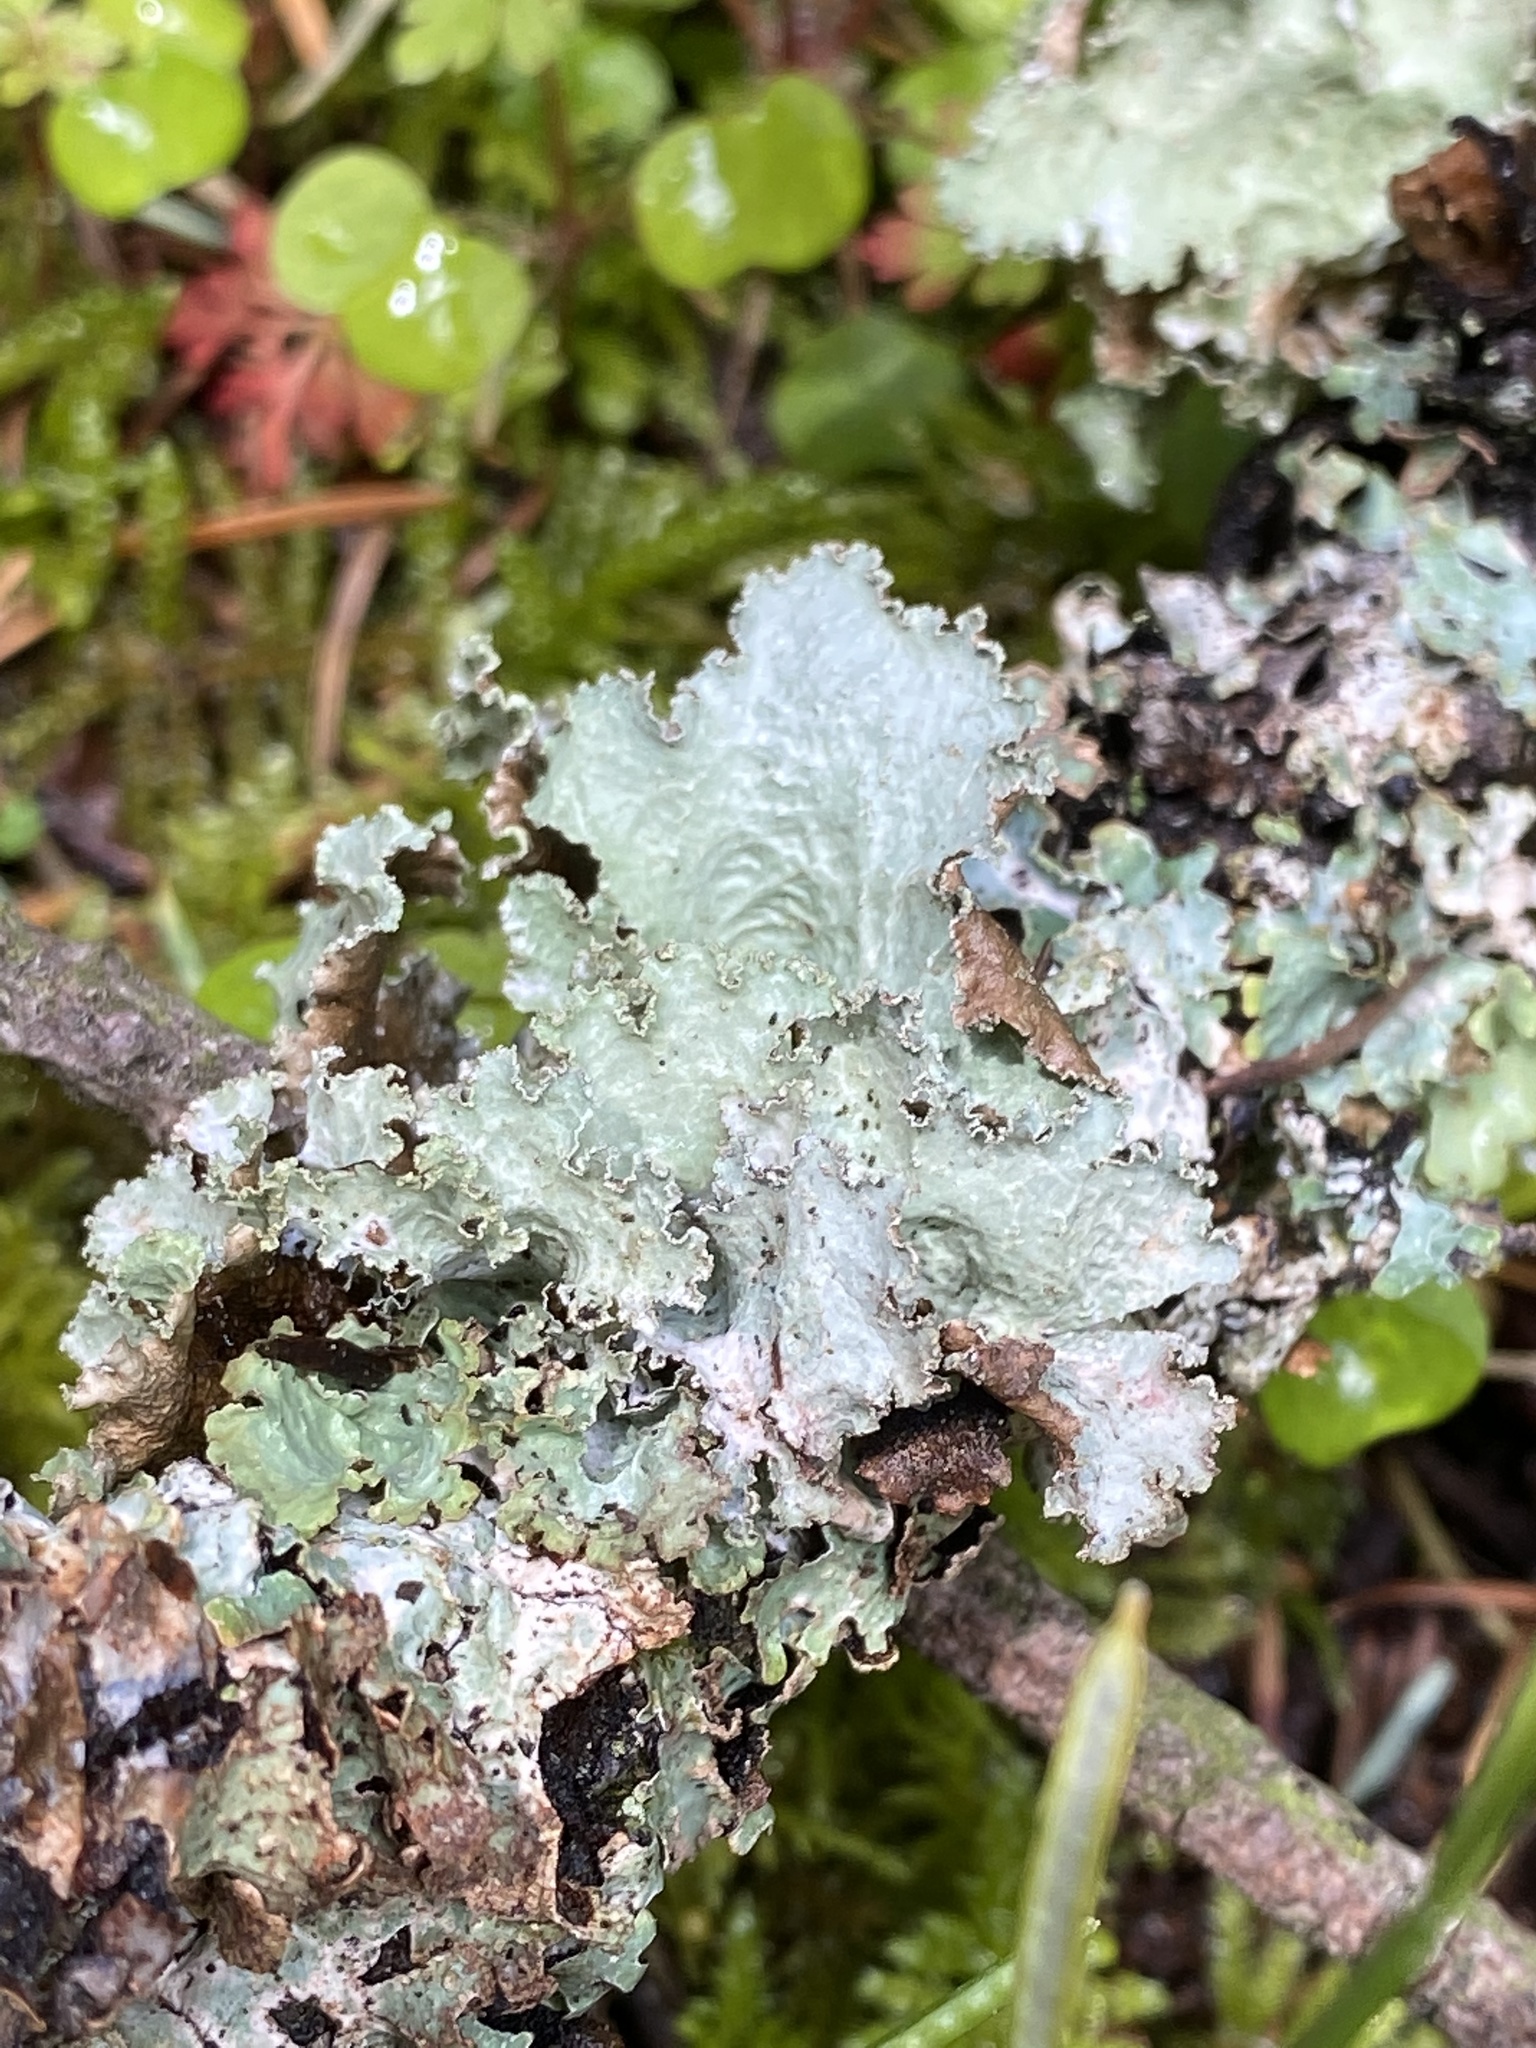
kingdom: Fungi
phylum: Ascomycota
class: Lecanoromycetes
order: Lecanorales
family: Parmeliaceae
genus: Platismatia
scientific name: Platismatia glauca
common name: Varied rag lichen
